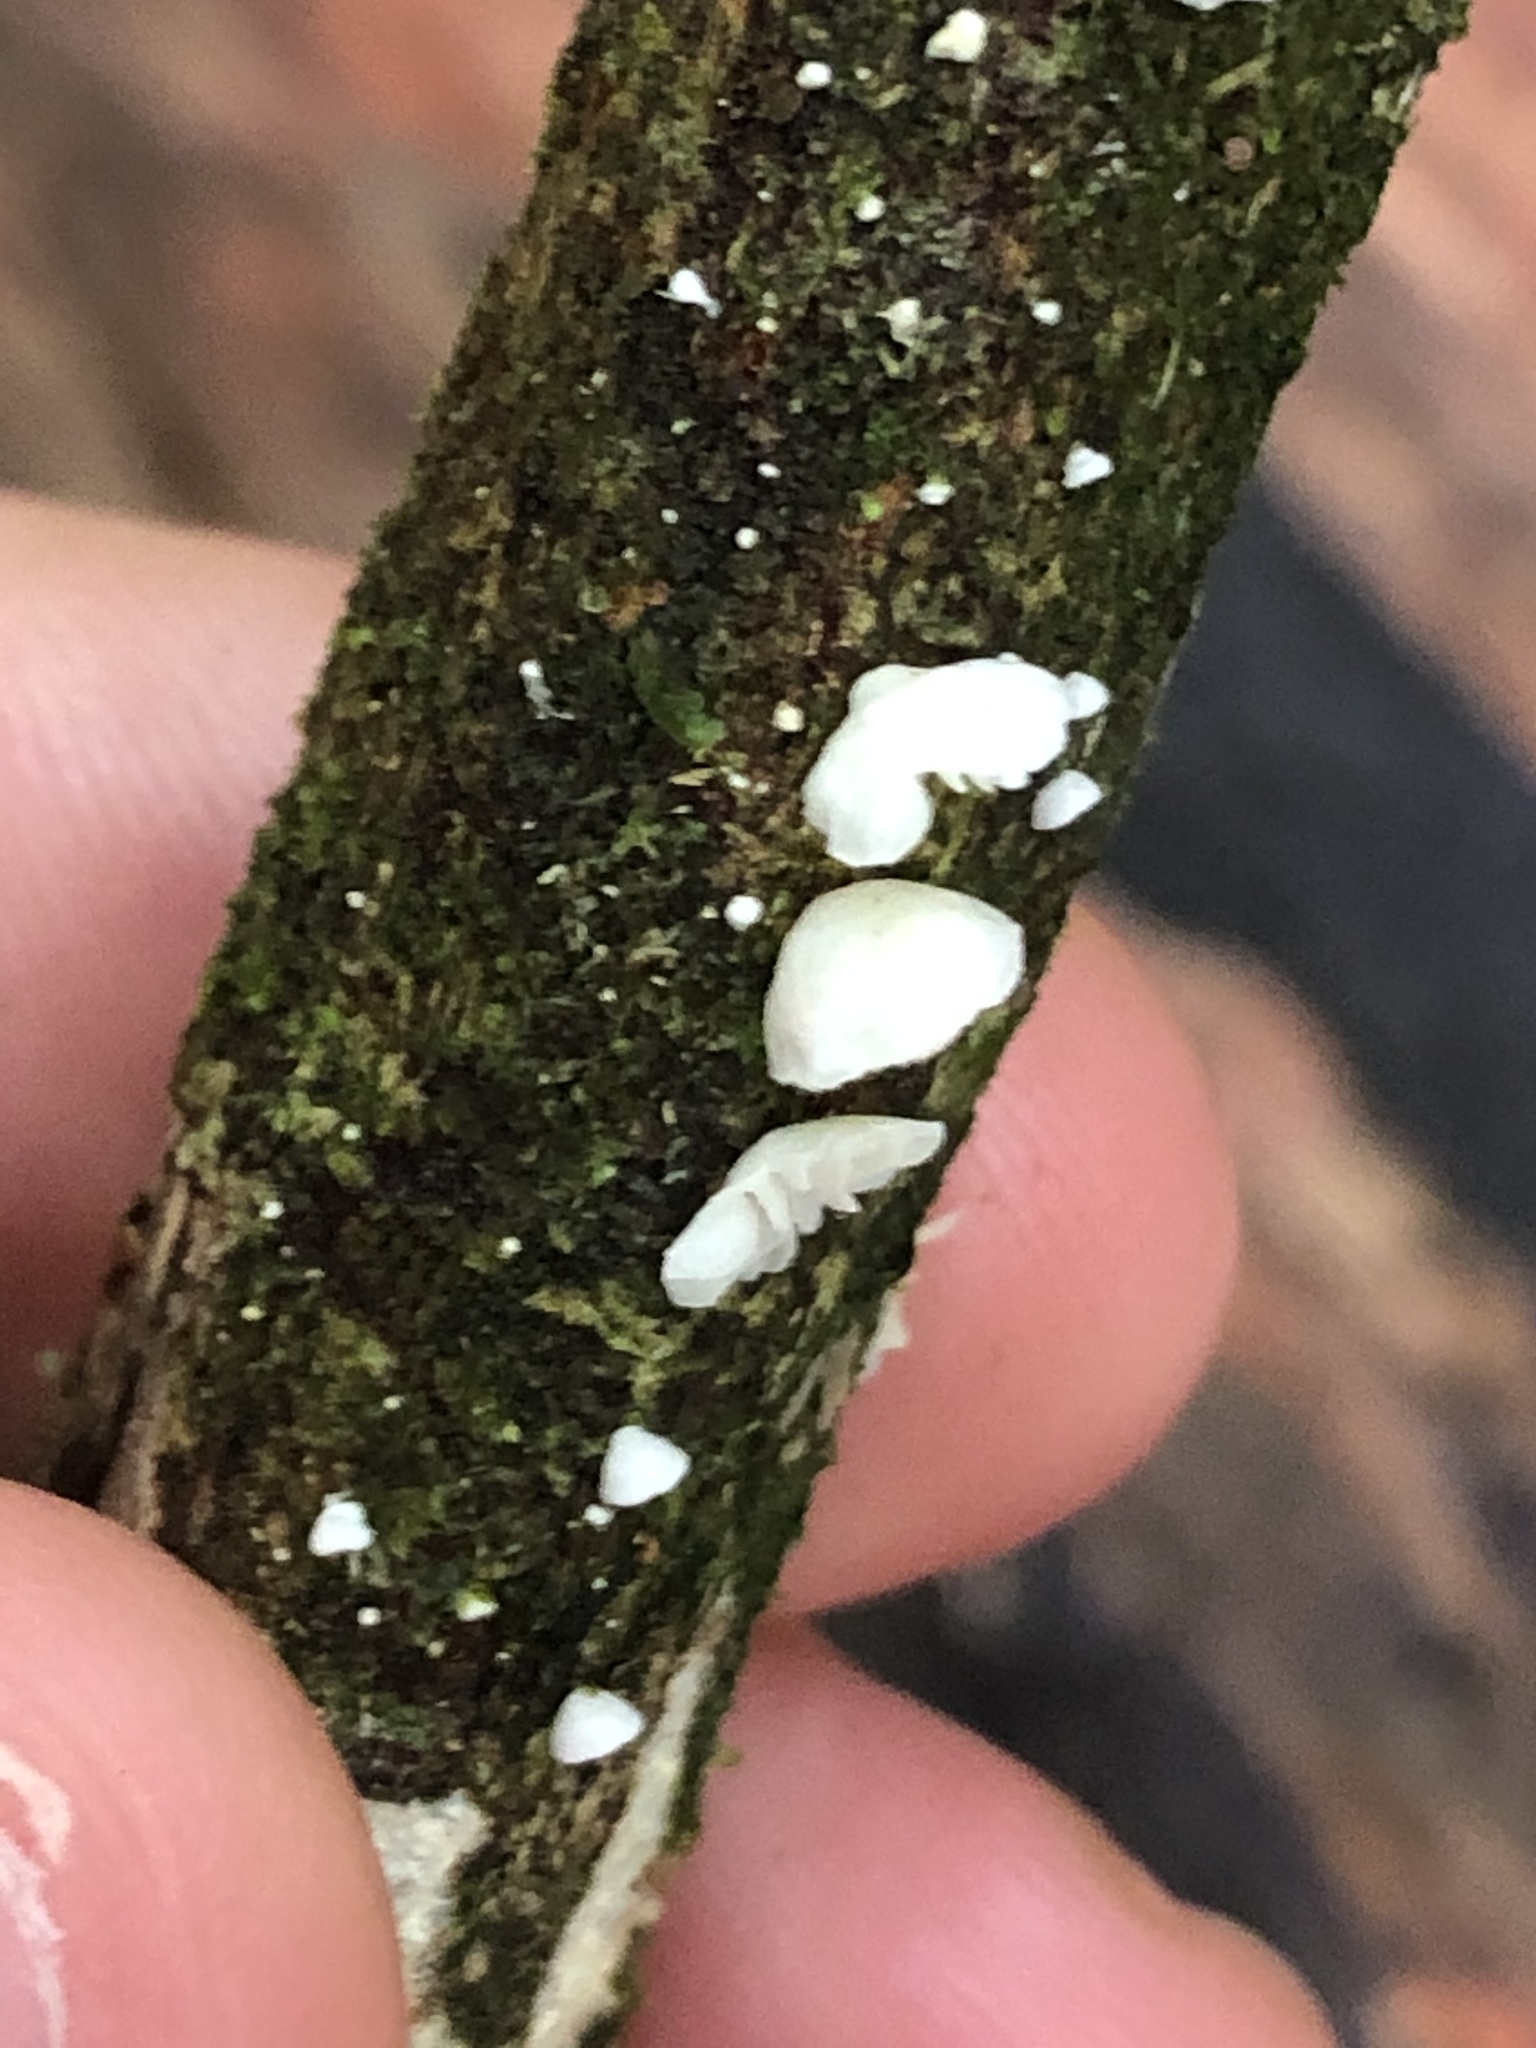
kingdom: Fungi
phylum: Basidiomycota
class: Agaricomycetes
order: Agaricales
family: Crepidotaceae
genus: Crepidotus
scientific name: Crepidotus variabilis
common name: Variable oysterling
